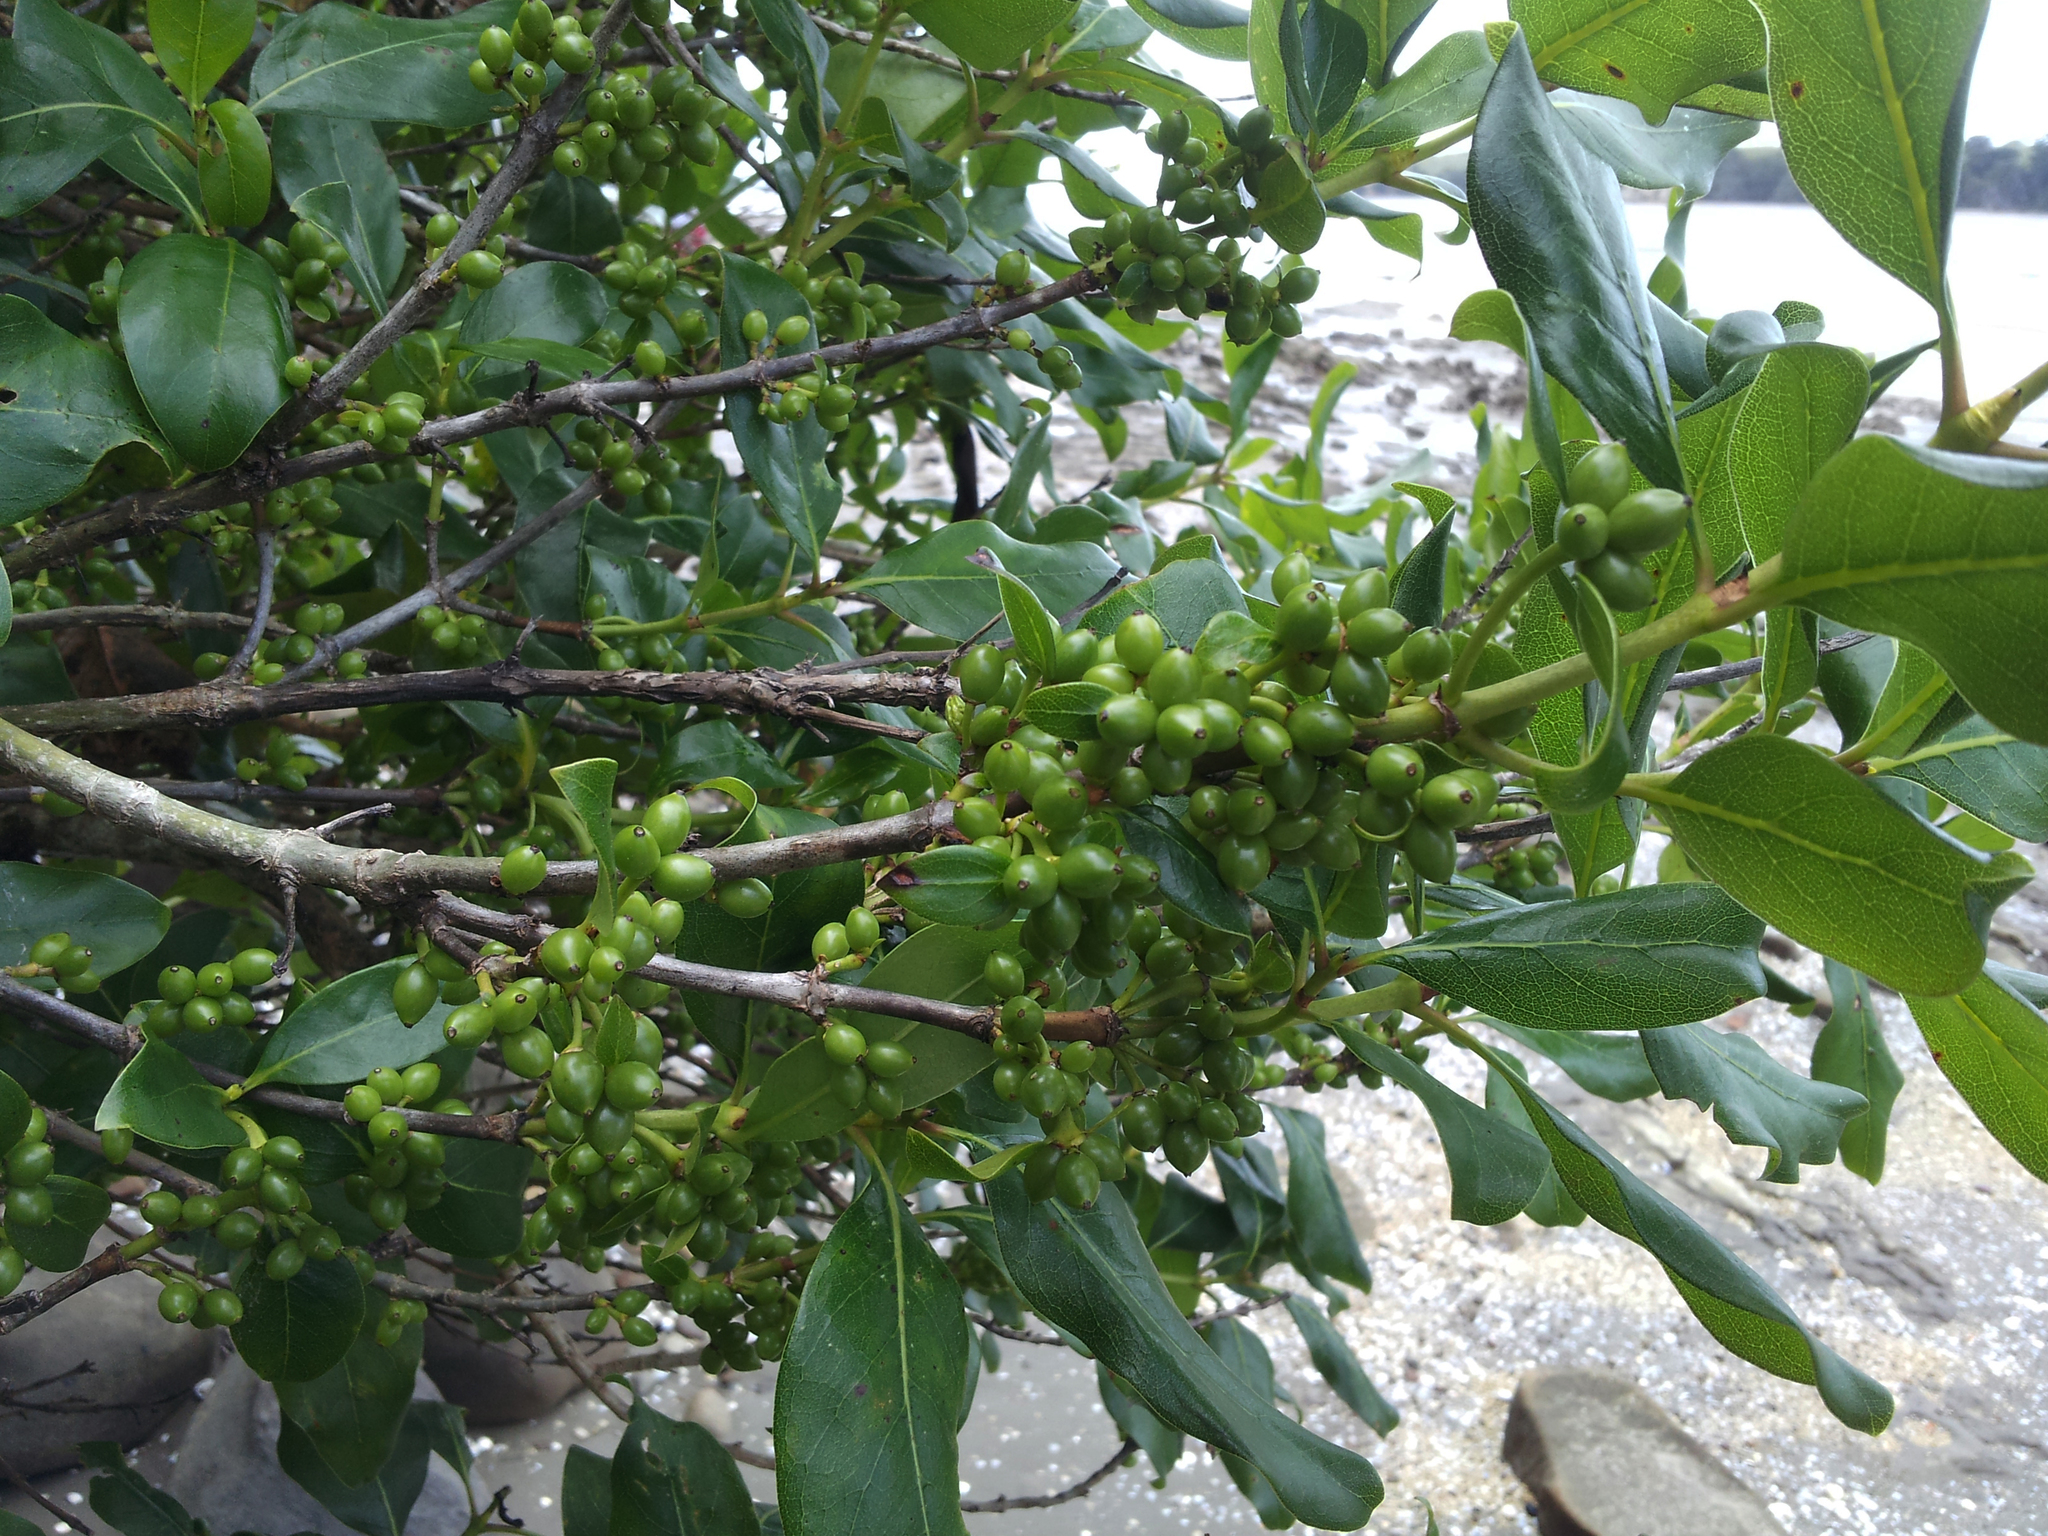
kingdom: Plantae
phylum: Tracheophyta
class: Magnoliopsida
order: Gentianales
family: Rubiaceae
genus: Coprosma
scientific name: Coprosma macrocarpa
